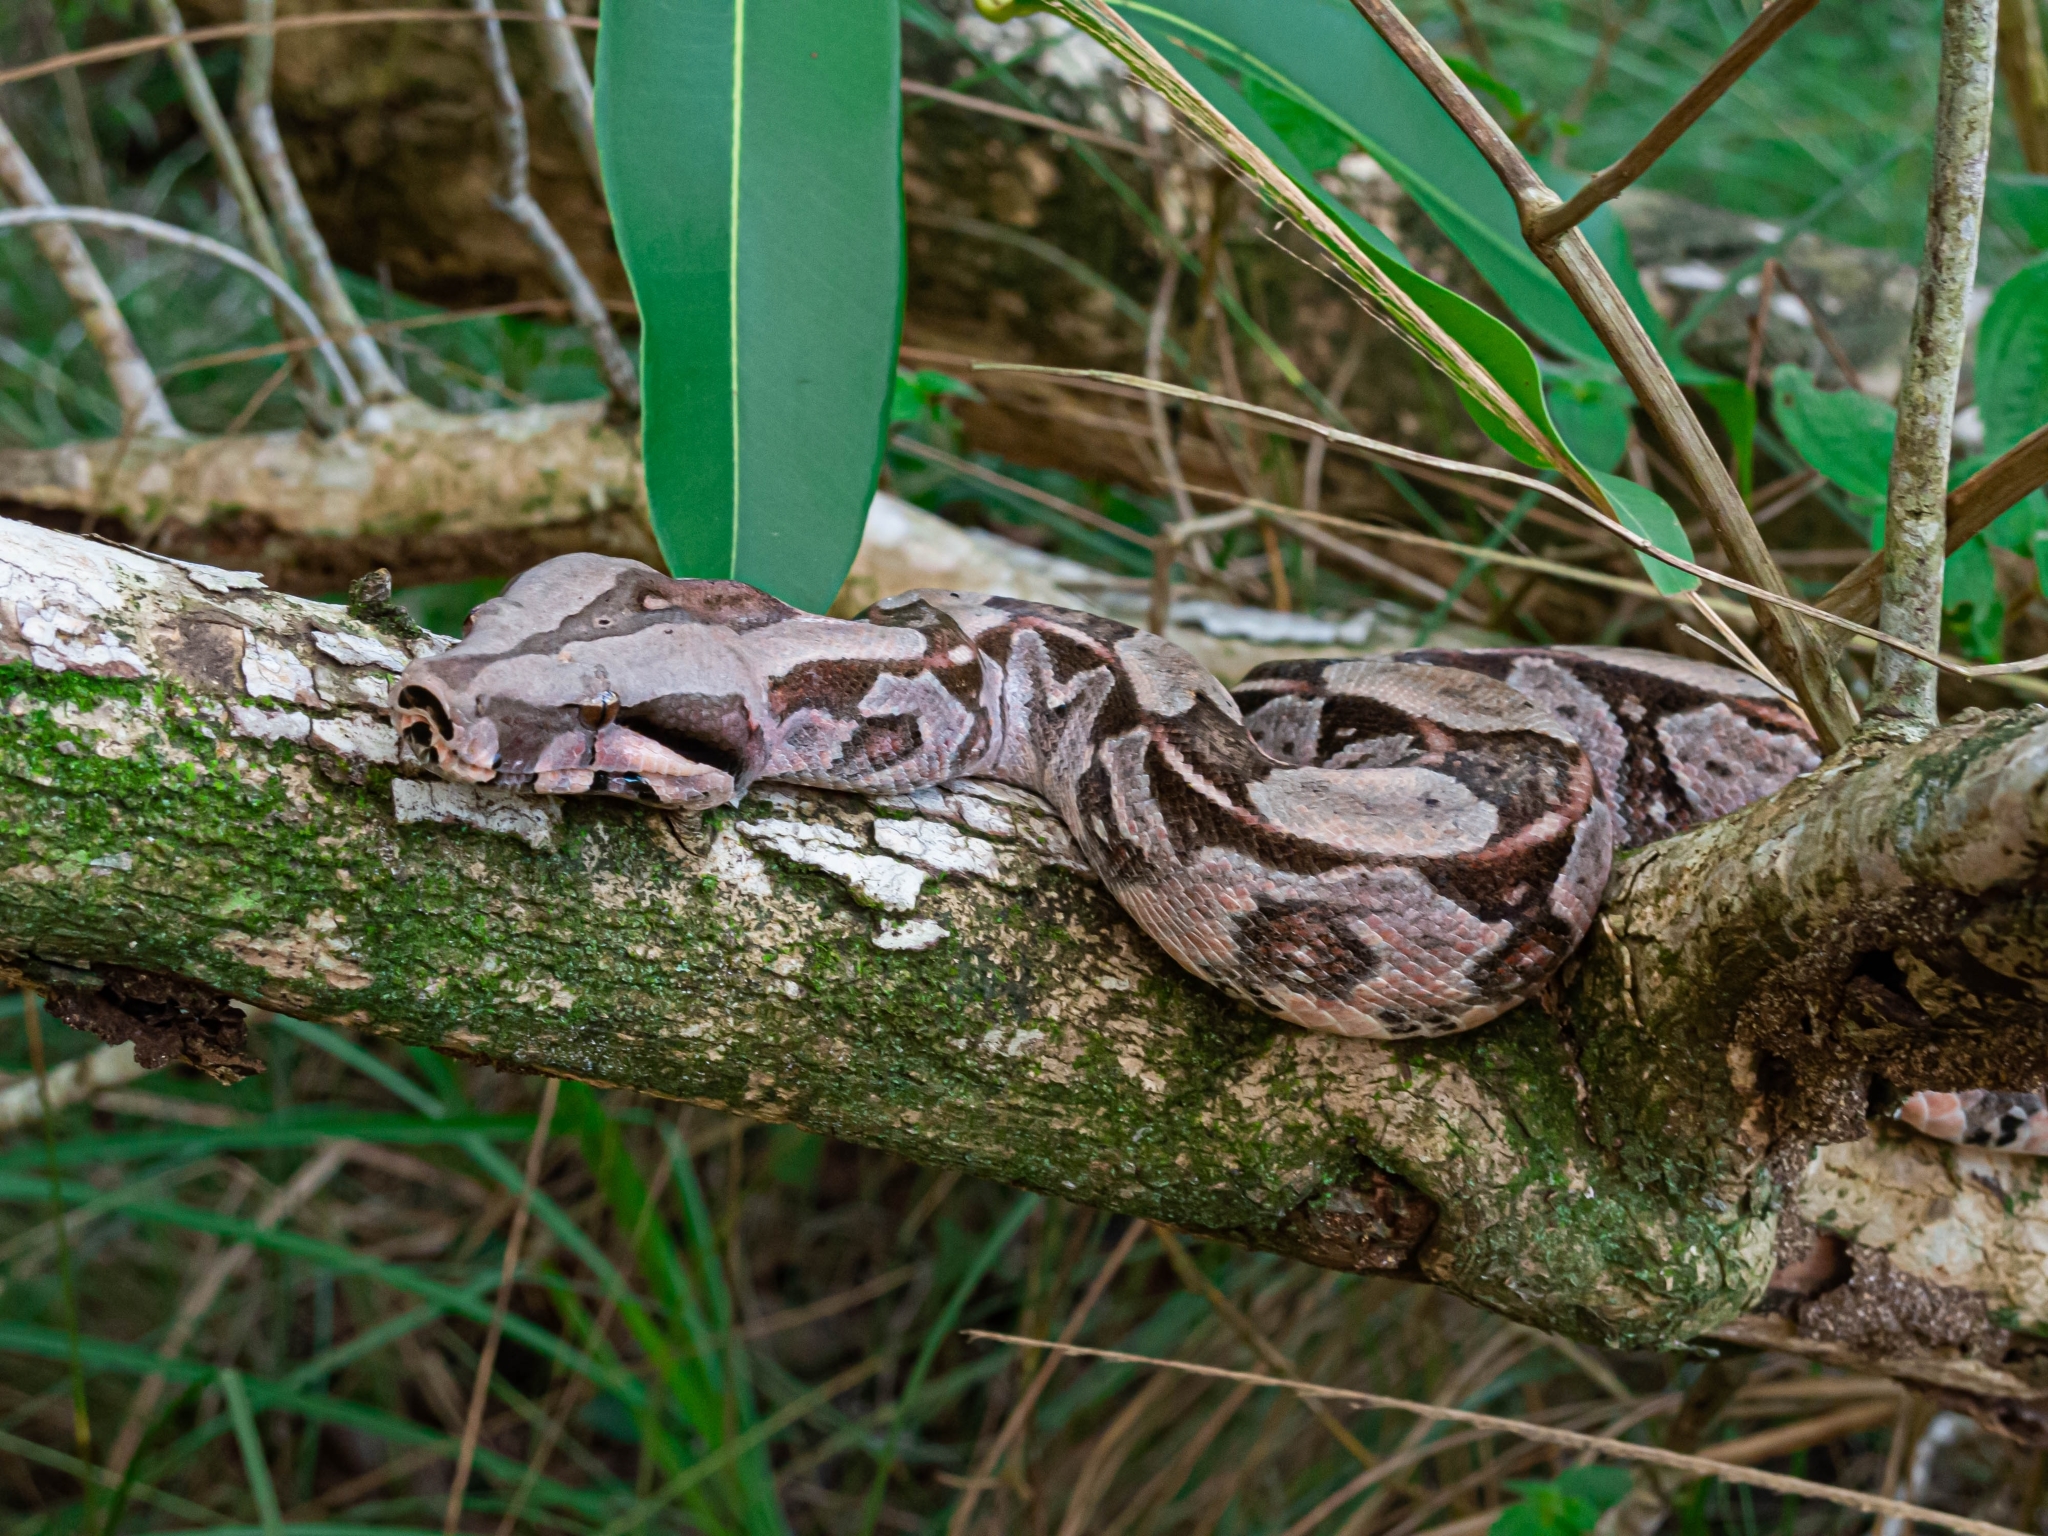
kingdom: Animalia
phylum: Chordata
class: Squamata
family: Boidae
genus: Boa
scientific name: Boa constrictor
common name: Boa constrictor
